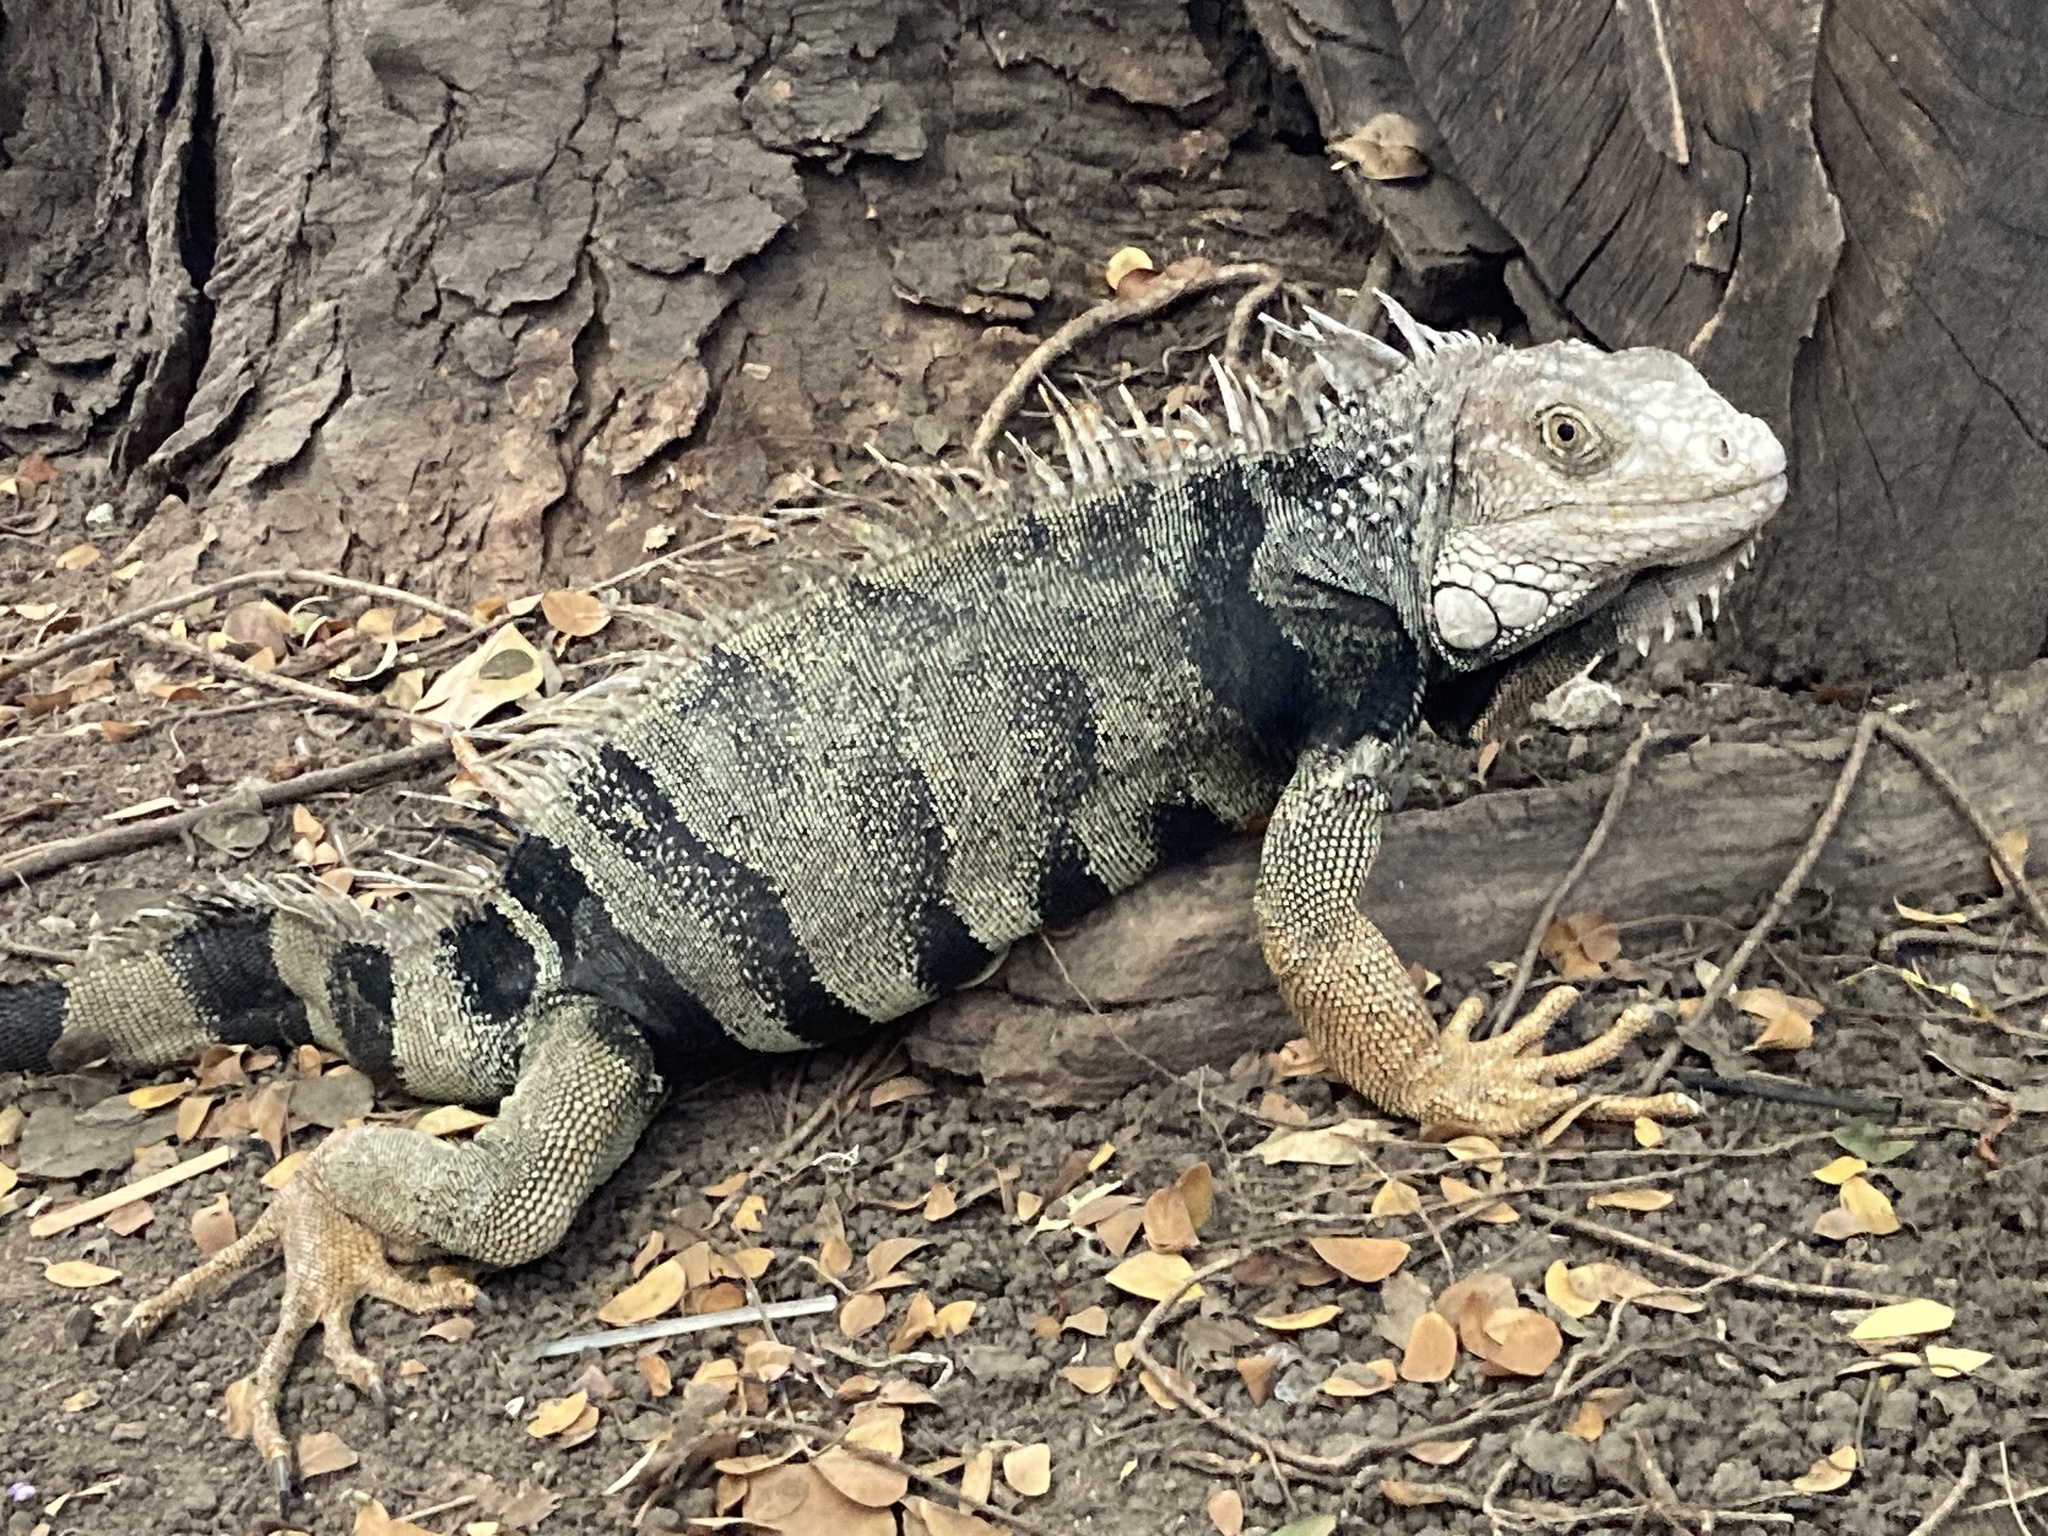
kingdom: Animalia
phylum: Chordata
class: Squamata
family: Iguanidae
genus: Iguana
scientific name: Iguana iguana
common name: Green iguana
